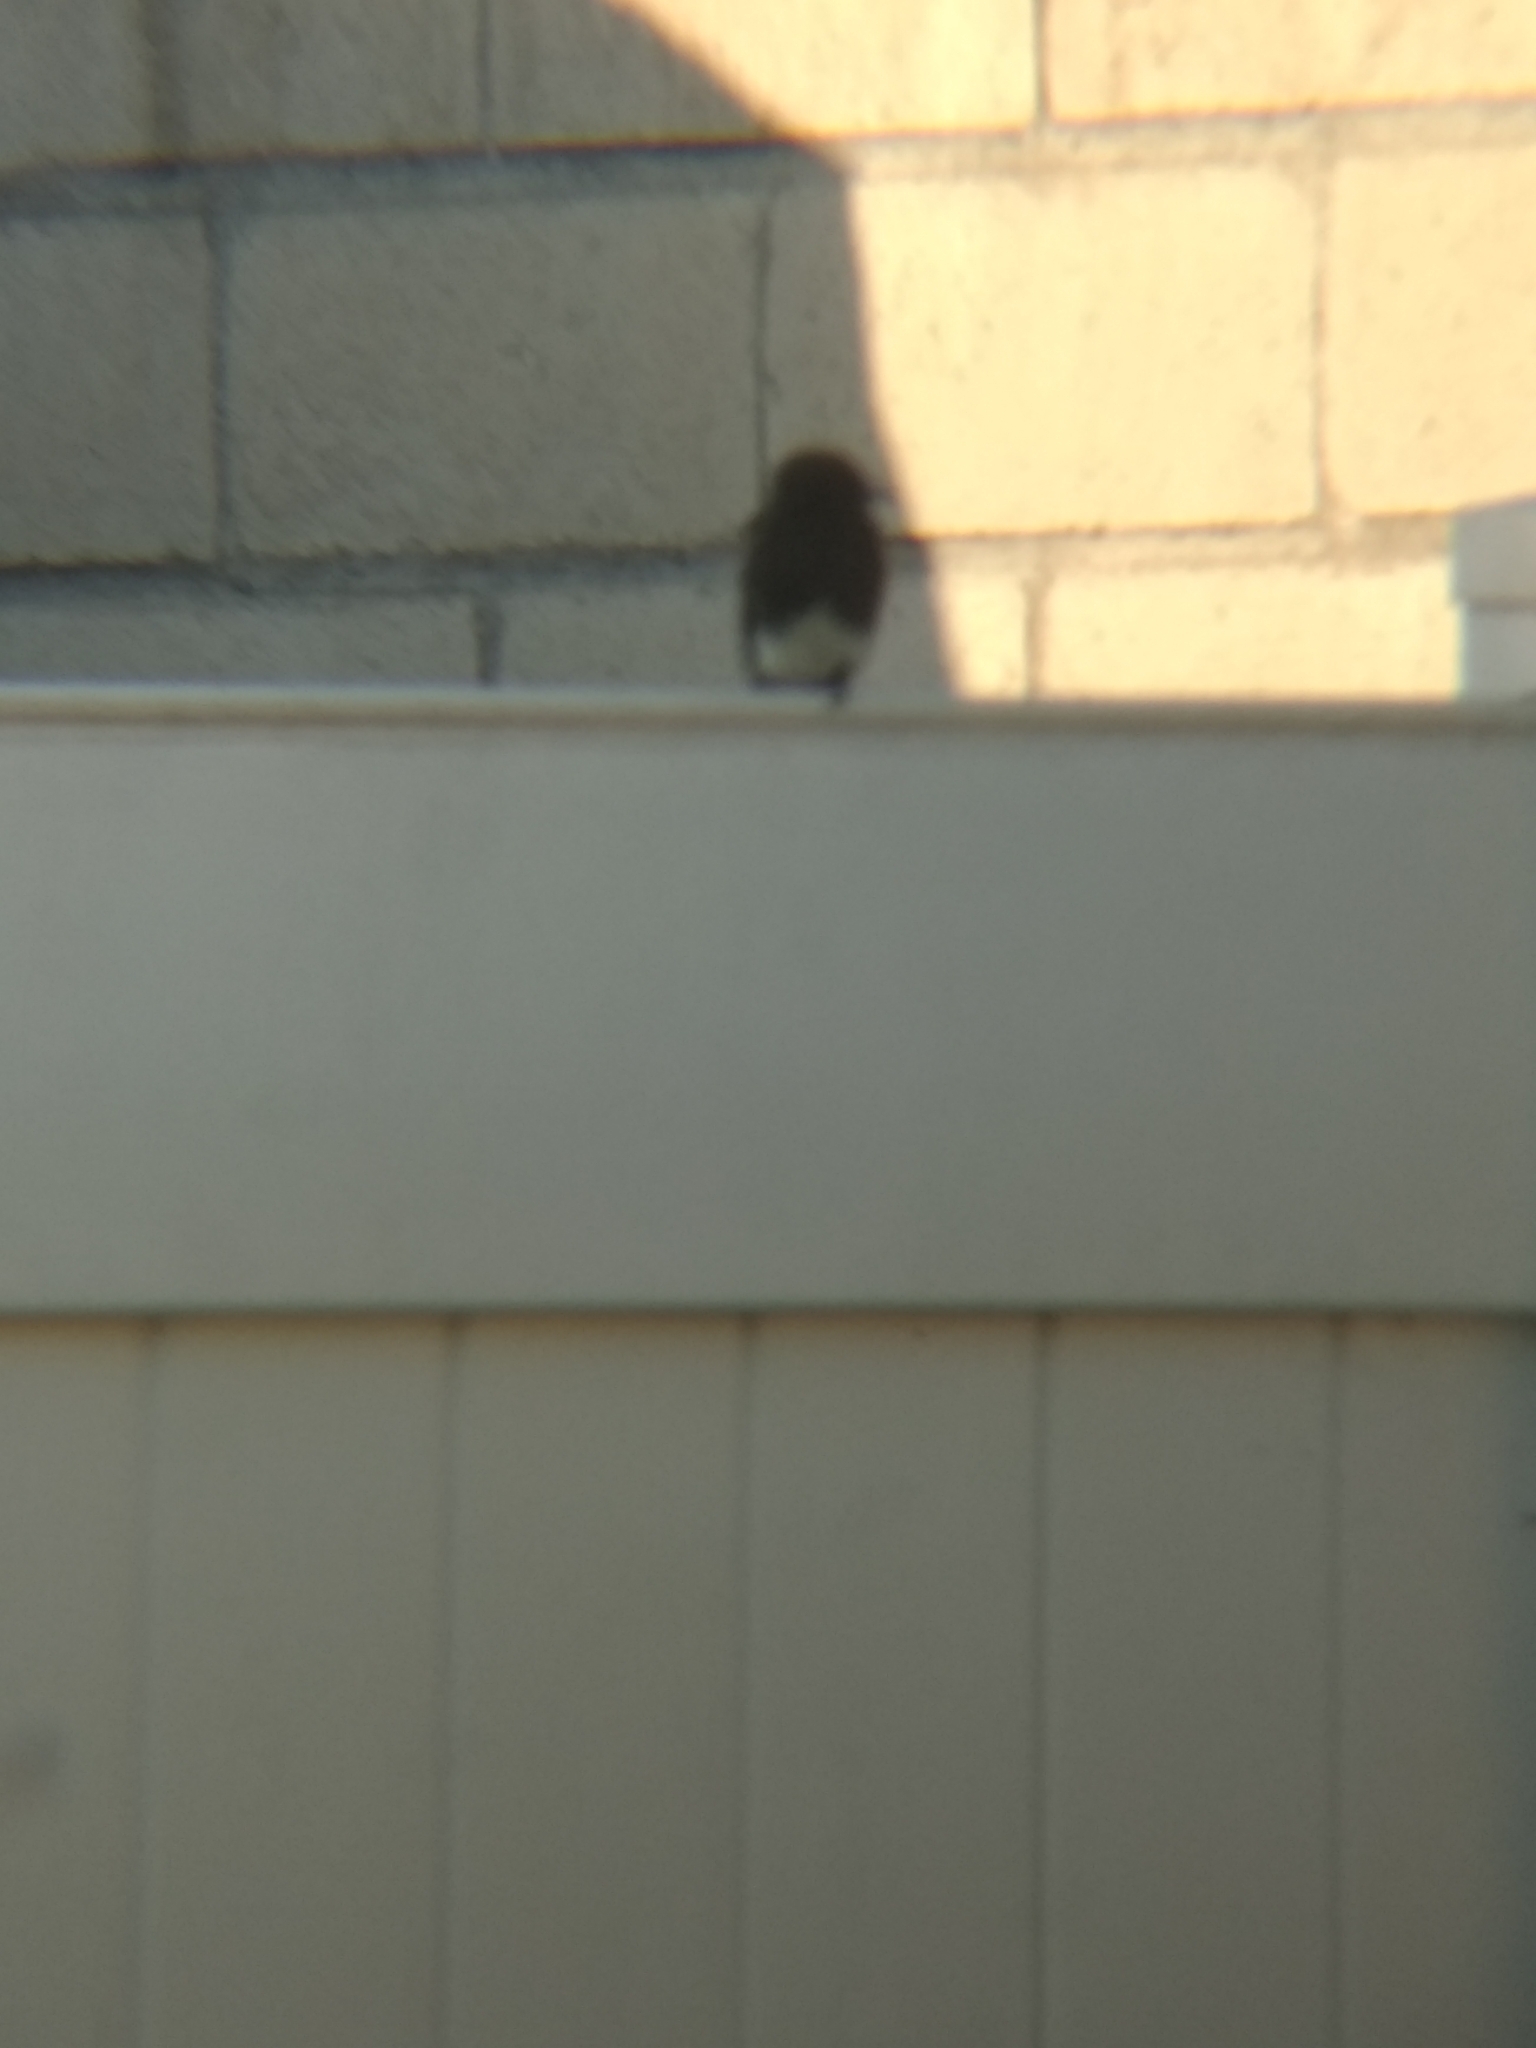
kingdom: Animalia
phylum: Chordata
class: Aves
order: Passeriformes
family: Tyrannidae
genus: Sayornis
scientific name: Sayornis nigricans
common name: Black phoebe
